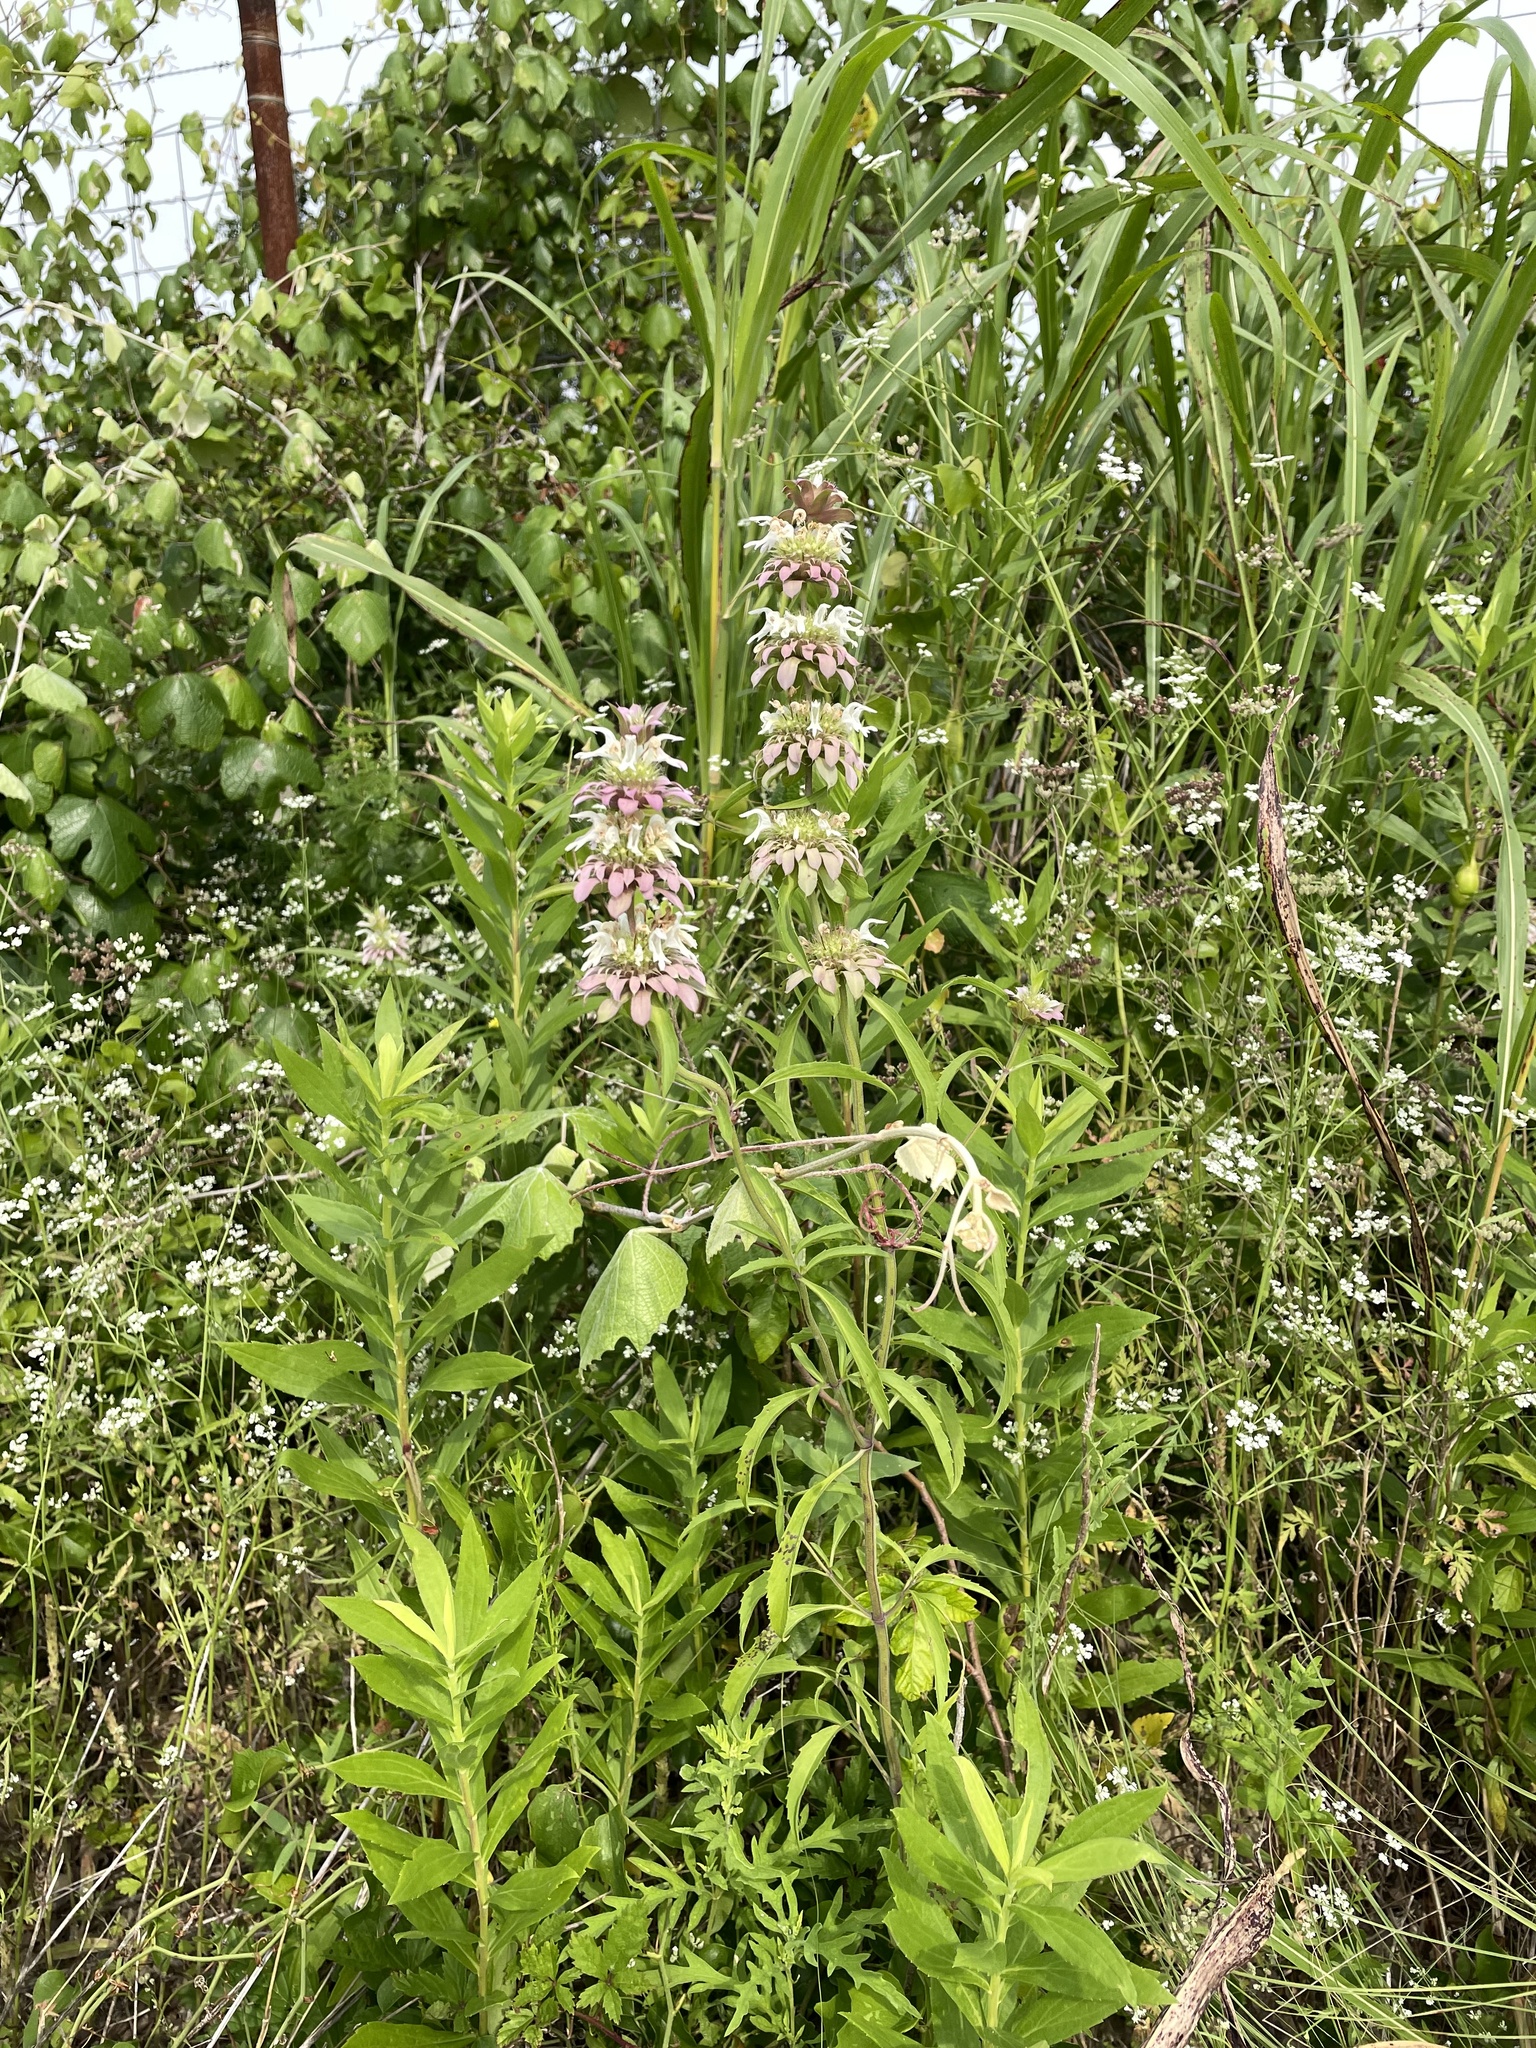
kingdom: Plantae
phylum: Tracheophyta
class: Magnoliopsida
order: Lamiales
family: Lamiaceae
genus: Monarda
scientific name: Monarda citriodora
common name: Lemon beebalm
